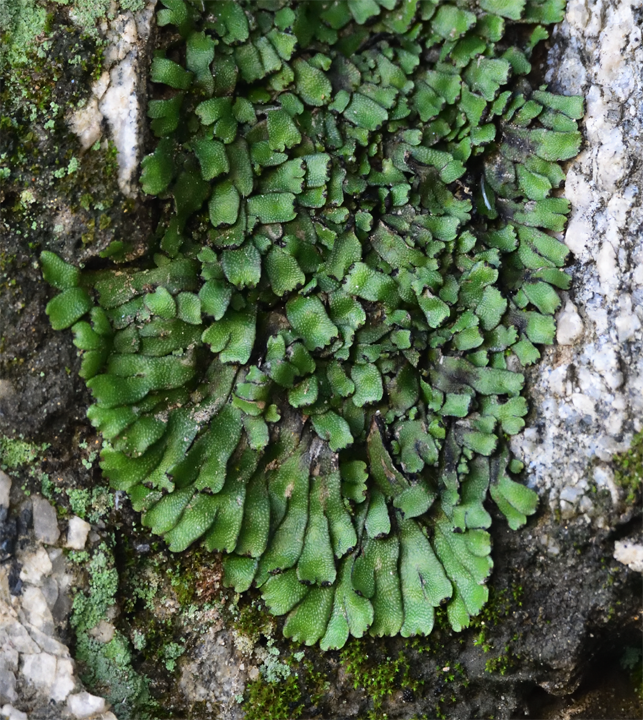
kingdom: Plantae
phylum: Marchantiophyta
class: Marchantiopsida
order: Marchantiales
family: Targioniaceae
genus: Targionia
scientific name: Targionia hypophylla
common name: Orobus-seed liverwort
